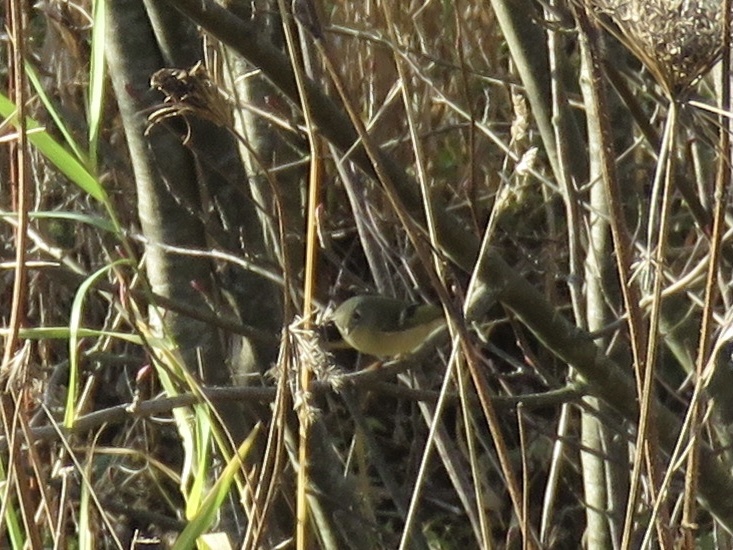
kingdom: Animalia
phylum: Chordata
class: Aves
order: Passeriformes
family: Regulidae
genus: Regulus
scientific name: Regulus calendula
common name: Ruby-crowned kinglet
